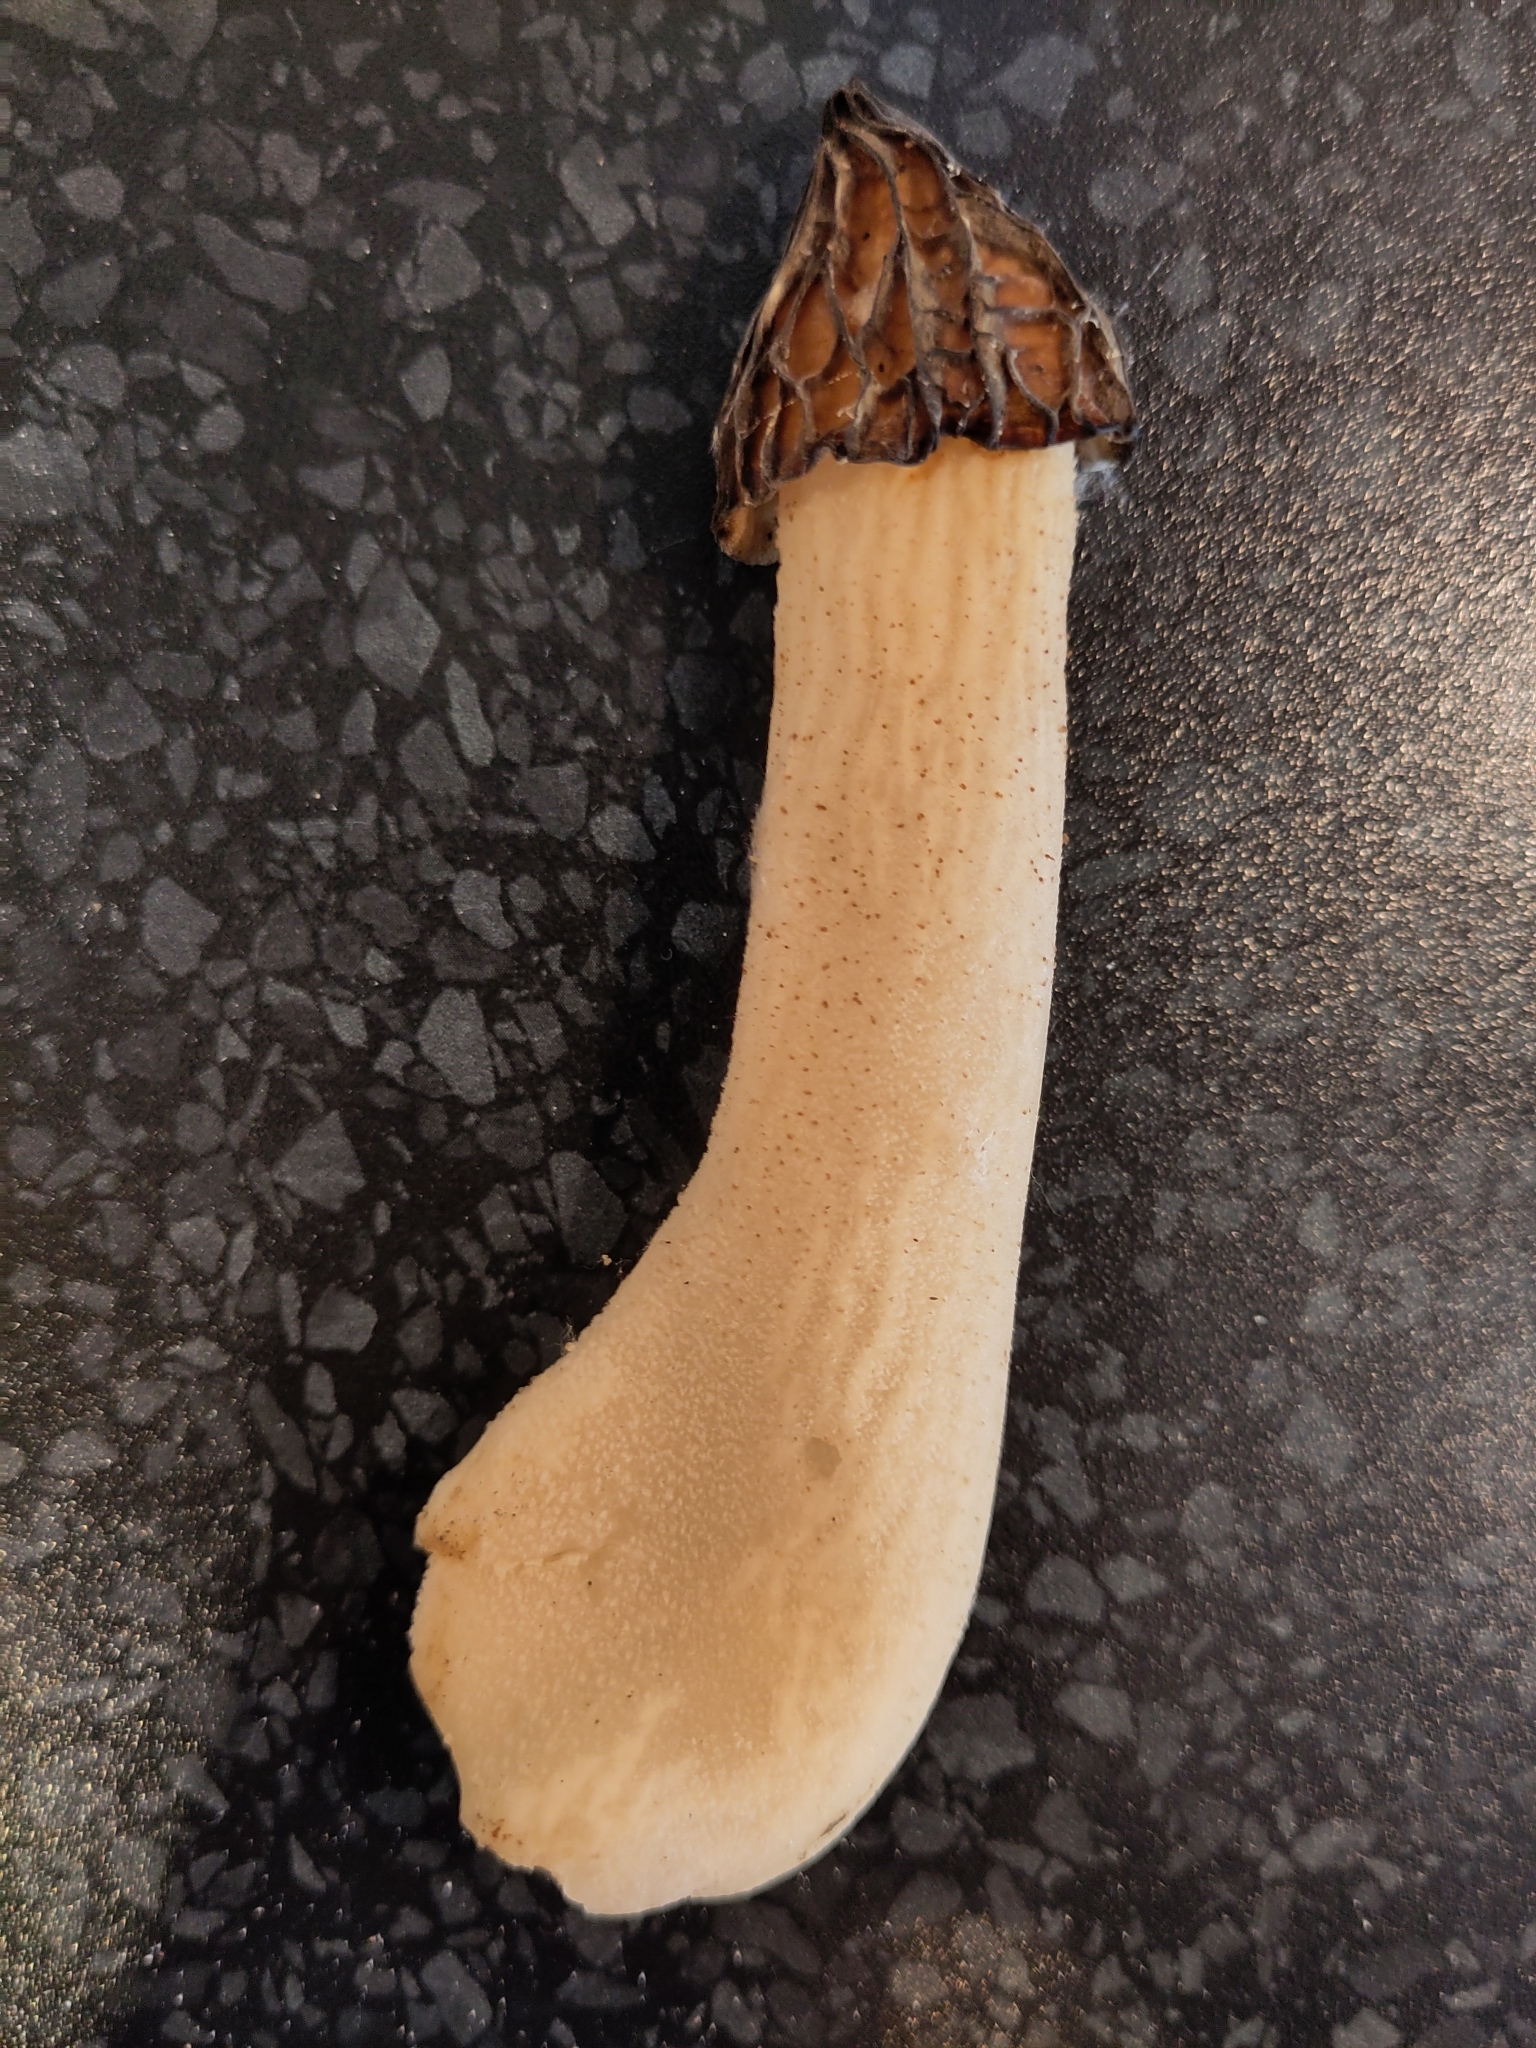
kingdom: Fungi
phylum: Ascomycota
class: Pezizomycetes
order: Pezizales
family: Morchellaceae
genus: Morchella
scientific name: Morchella semilibera
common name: Semifree morel
